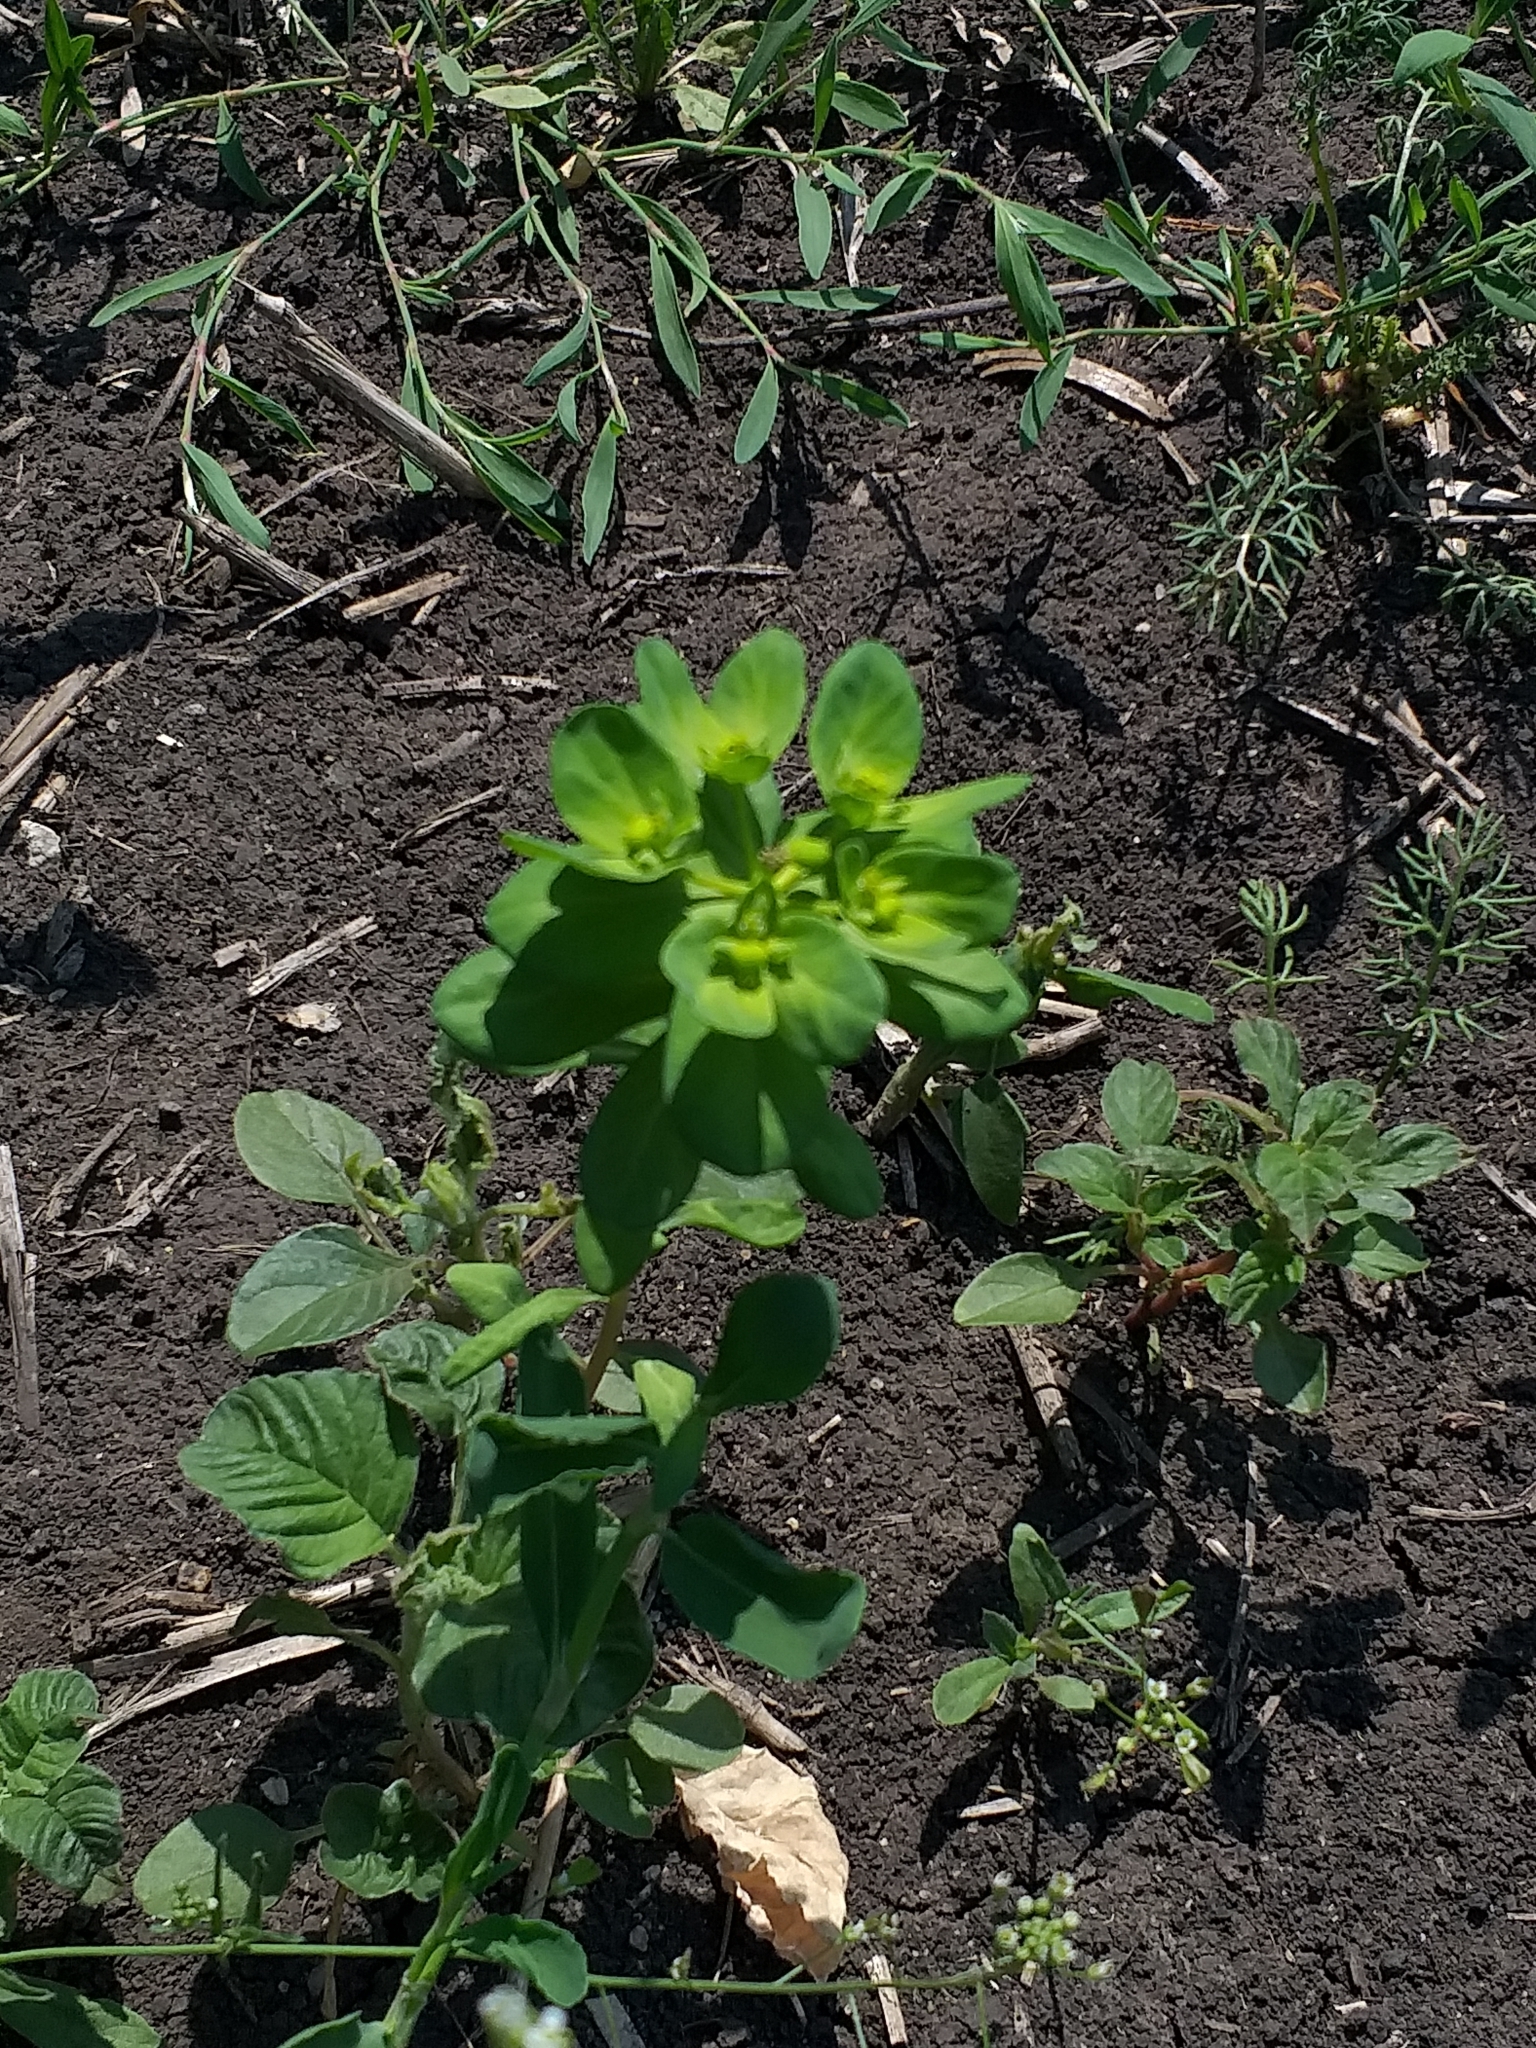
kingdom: Plantae
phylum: Tracheophyta
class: Magnoliopsida
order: Malpighiales
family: Euphorbiaceae
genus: Euphorbia
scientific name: Euphorbia helioscopia
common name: Sun spurge
